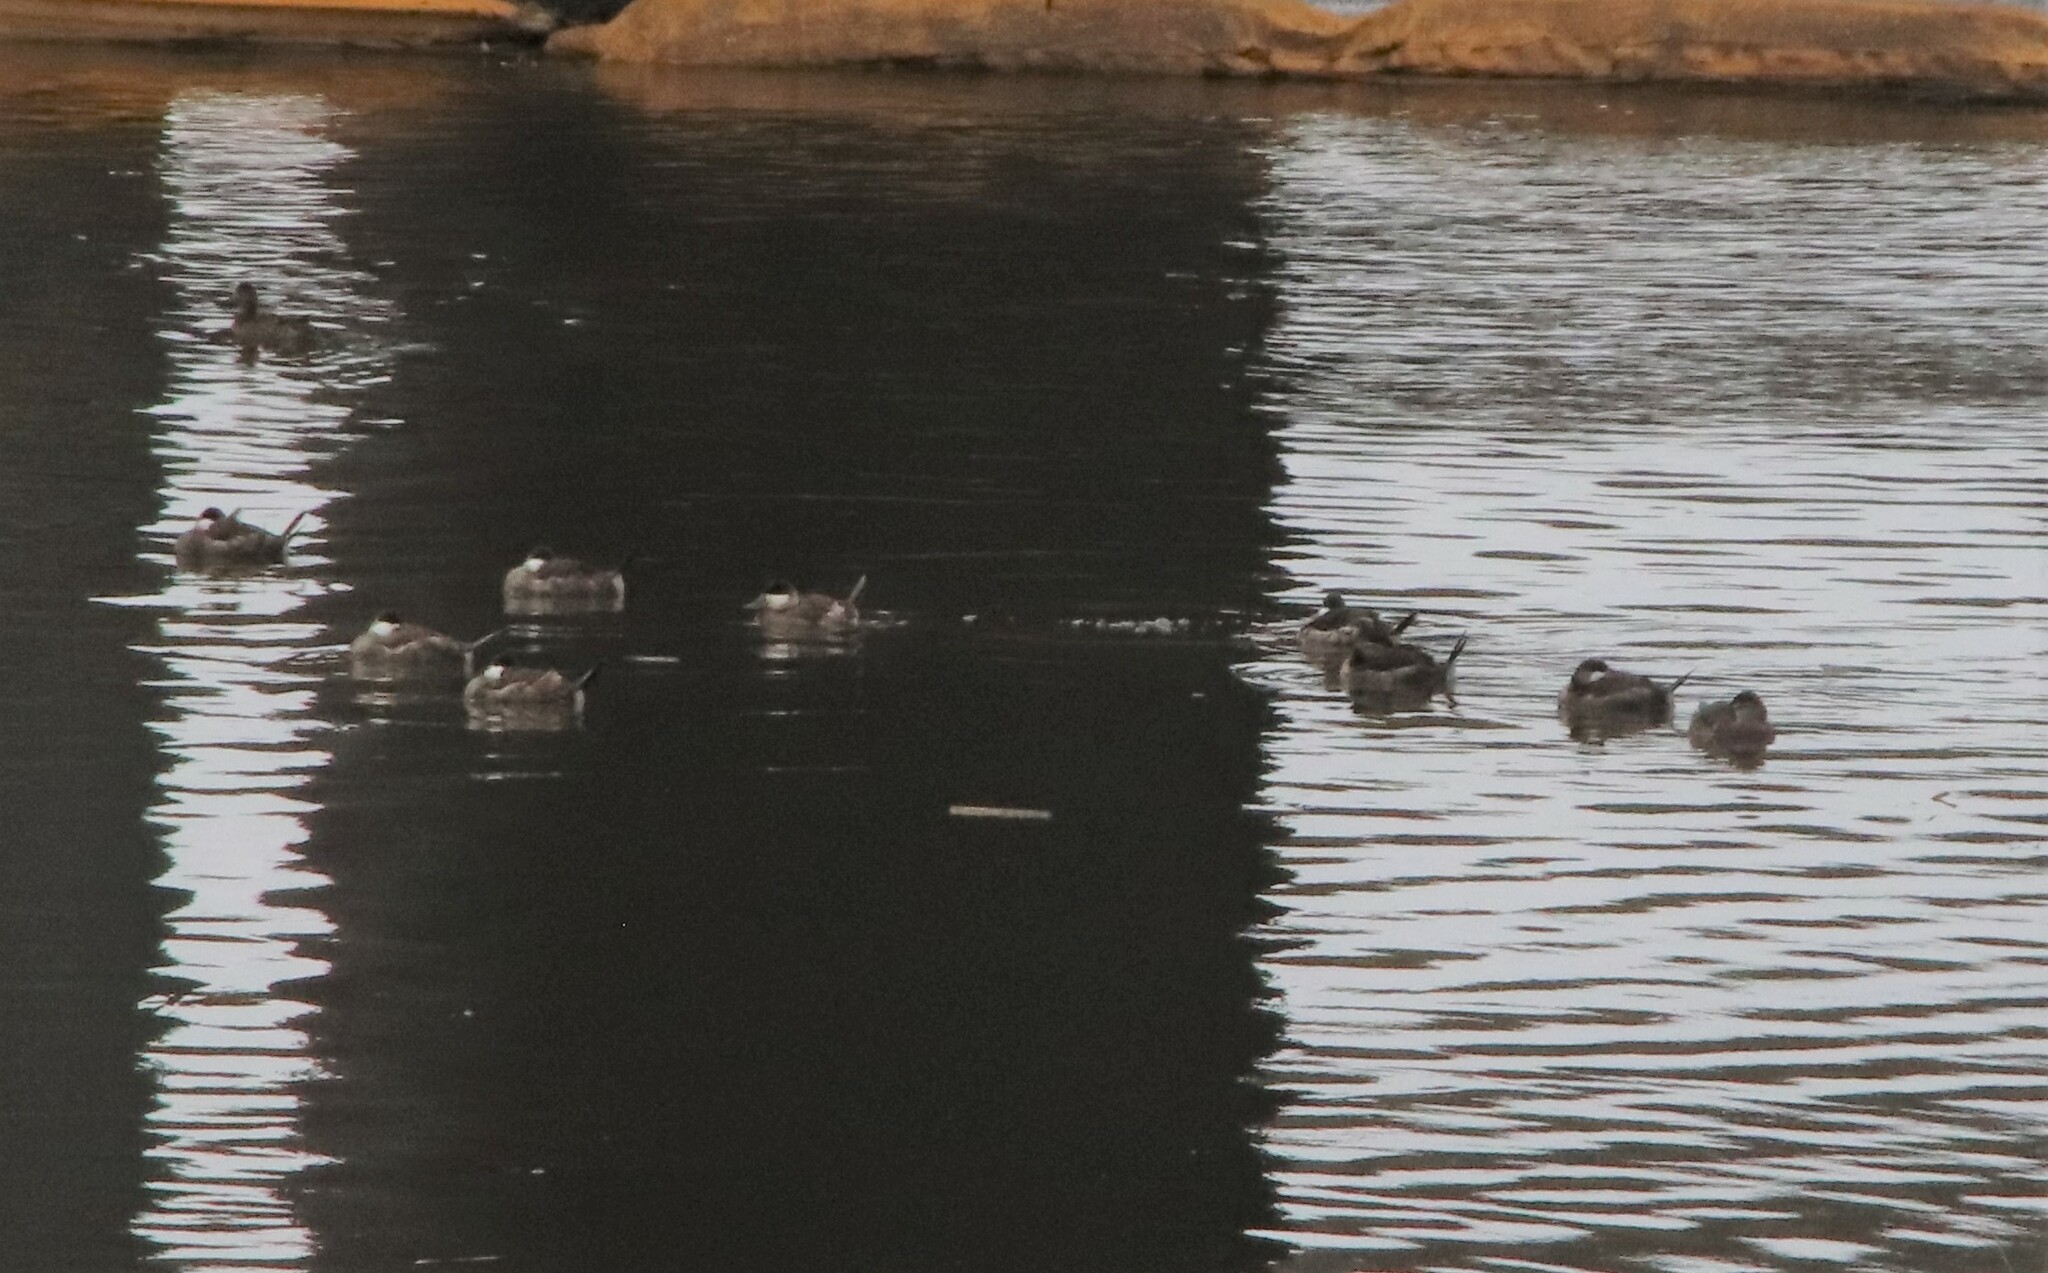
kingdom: Animalia
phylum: Chordata
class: Aves
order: Anseriformes
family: Anatidae
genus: Oxyura
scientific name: Oxyura jamaicensis
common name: Ruddy duck
